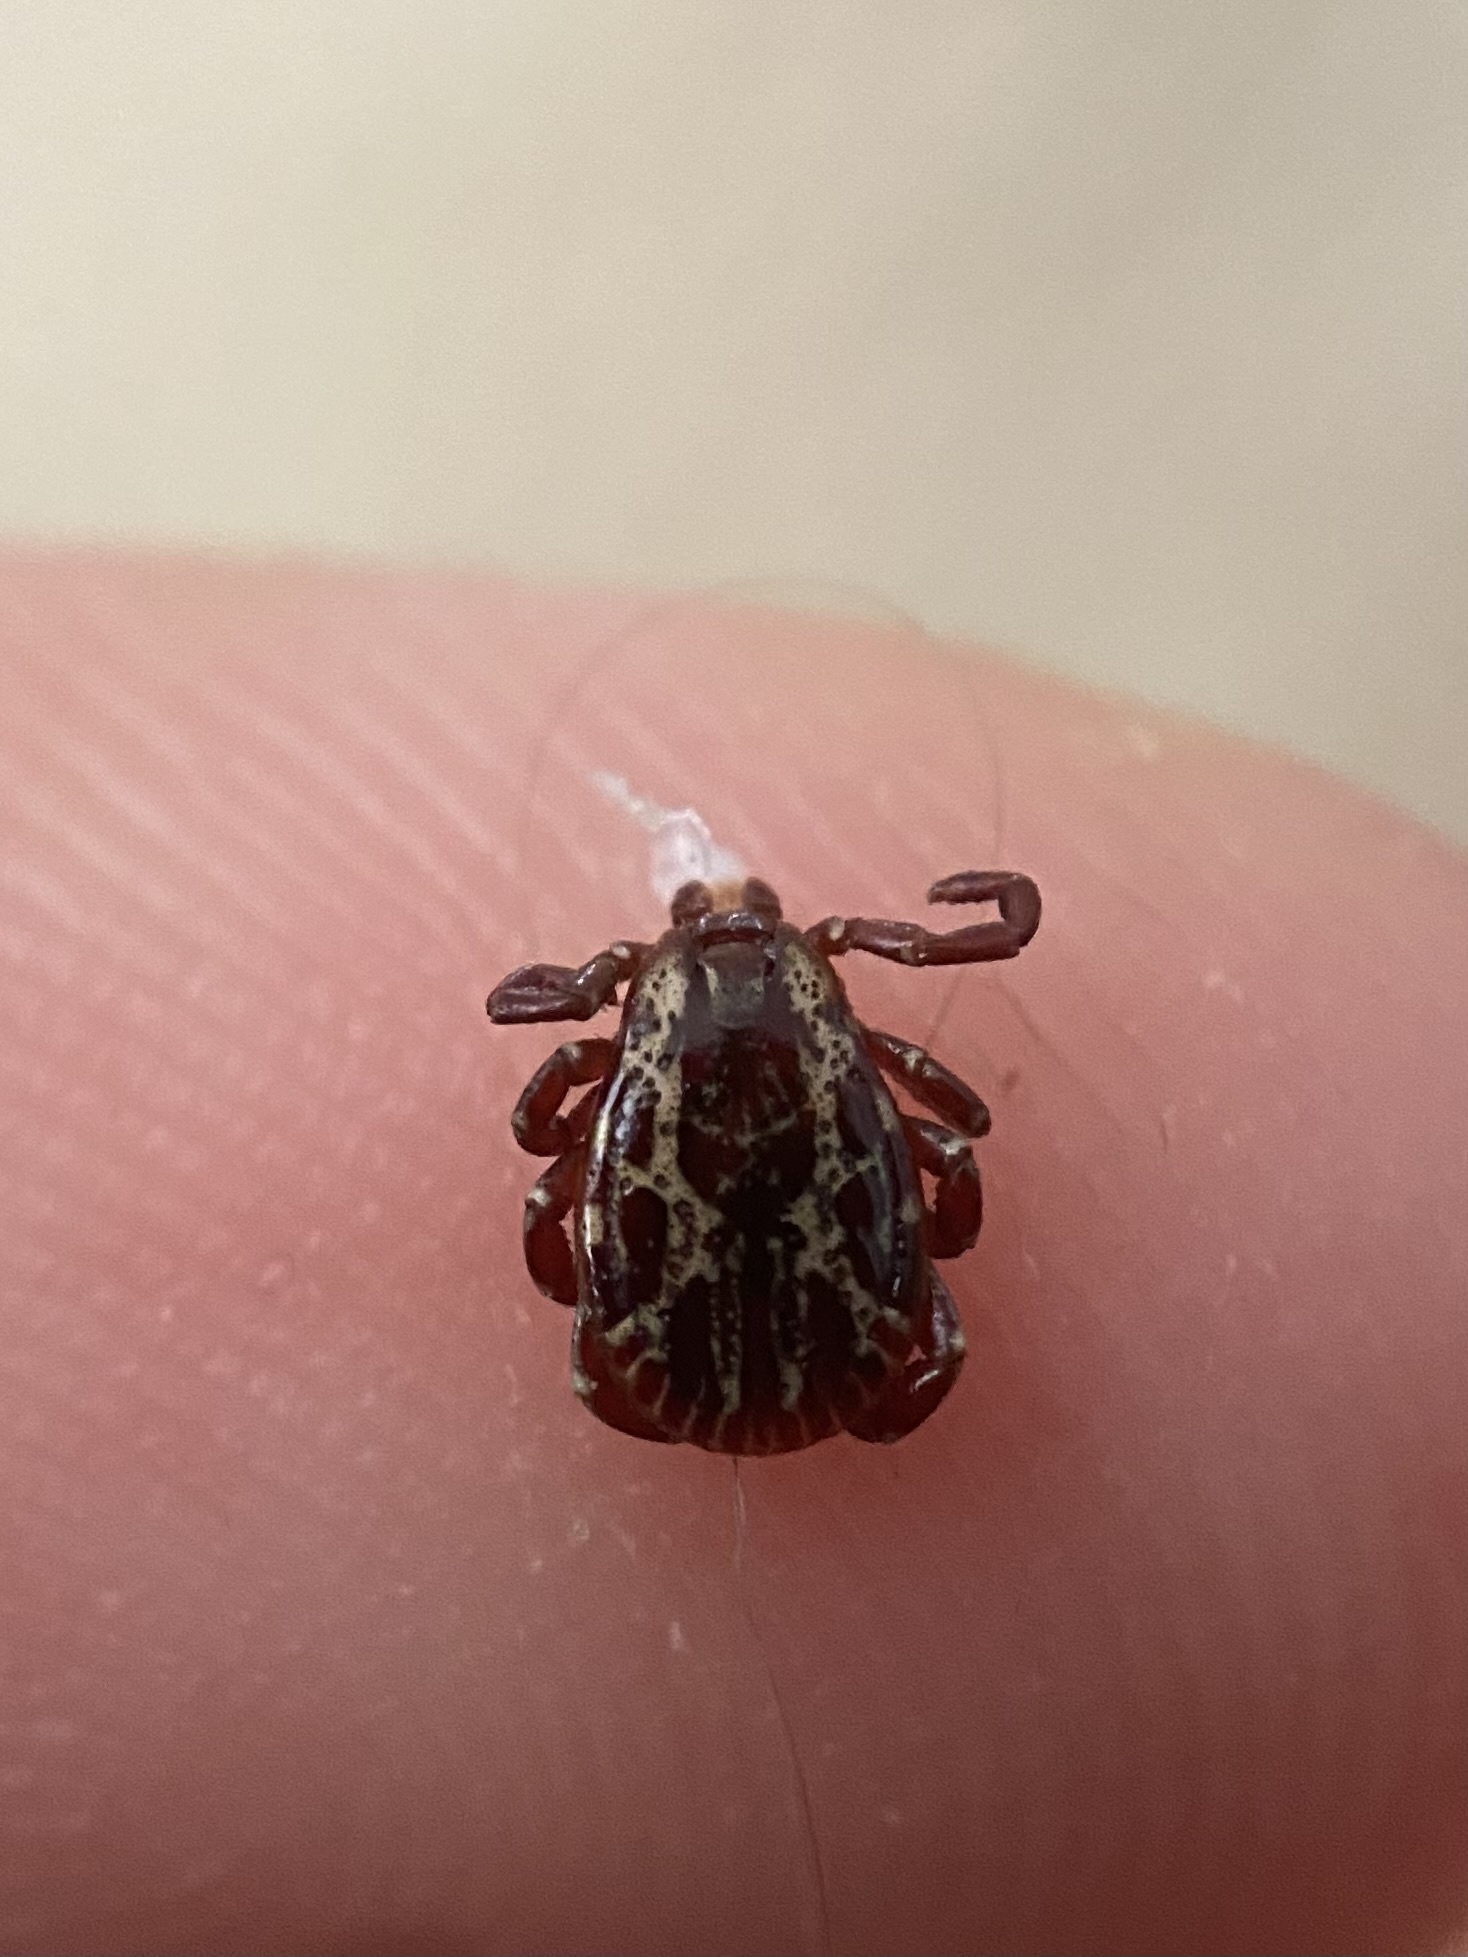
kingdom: Animalia
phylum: Arthropoda
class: Arachnida
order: Ixodida
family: Ixodidae
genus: Dermacentor
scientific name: Dermacentor variabilis
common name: American dog tick
